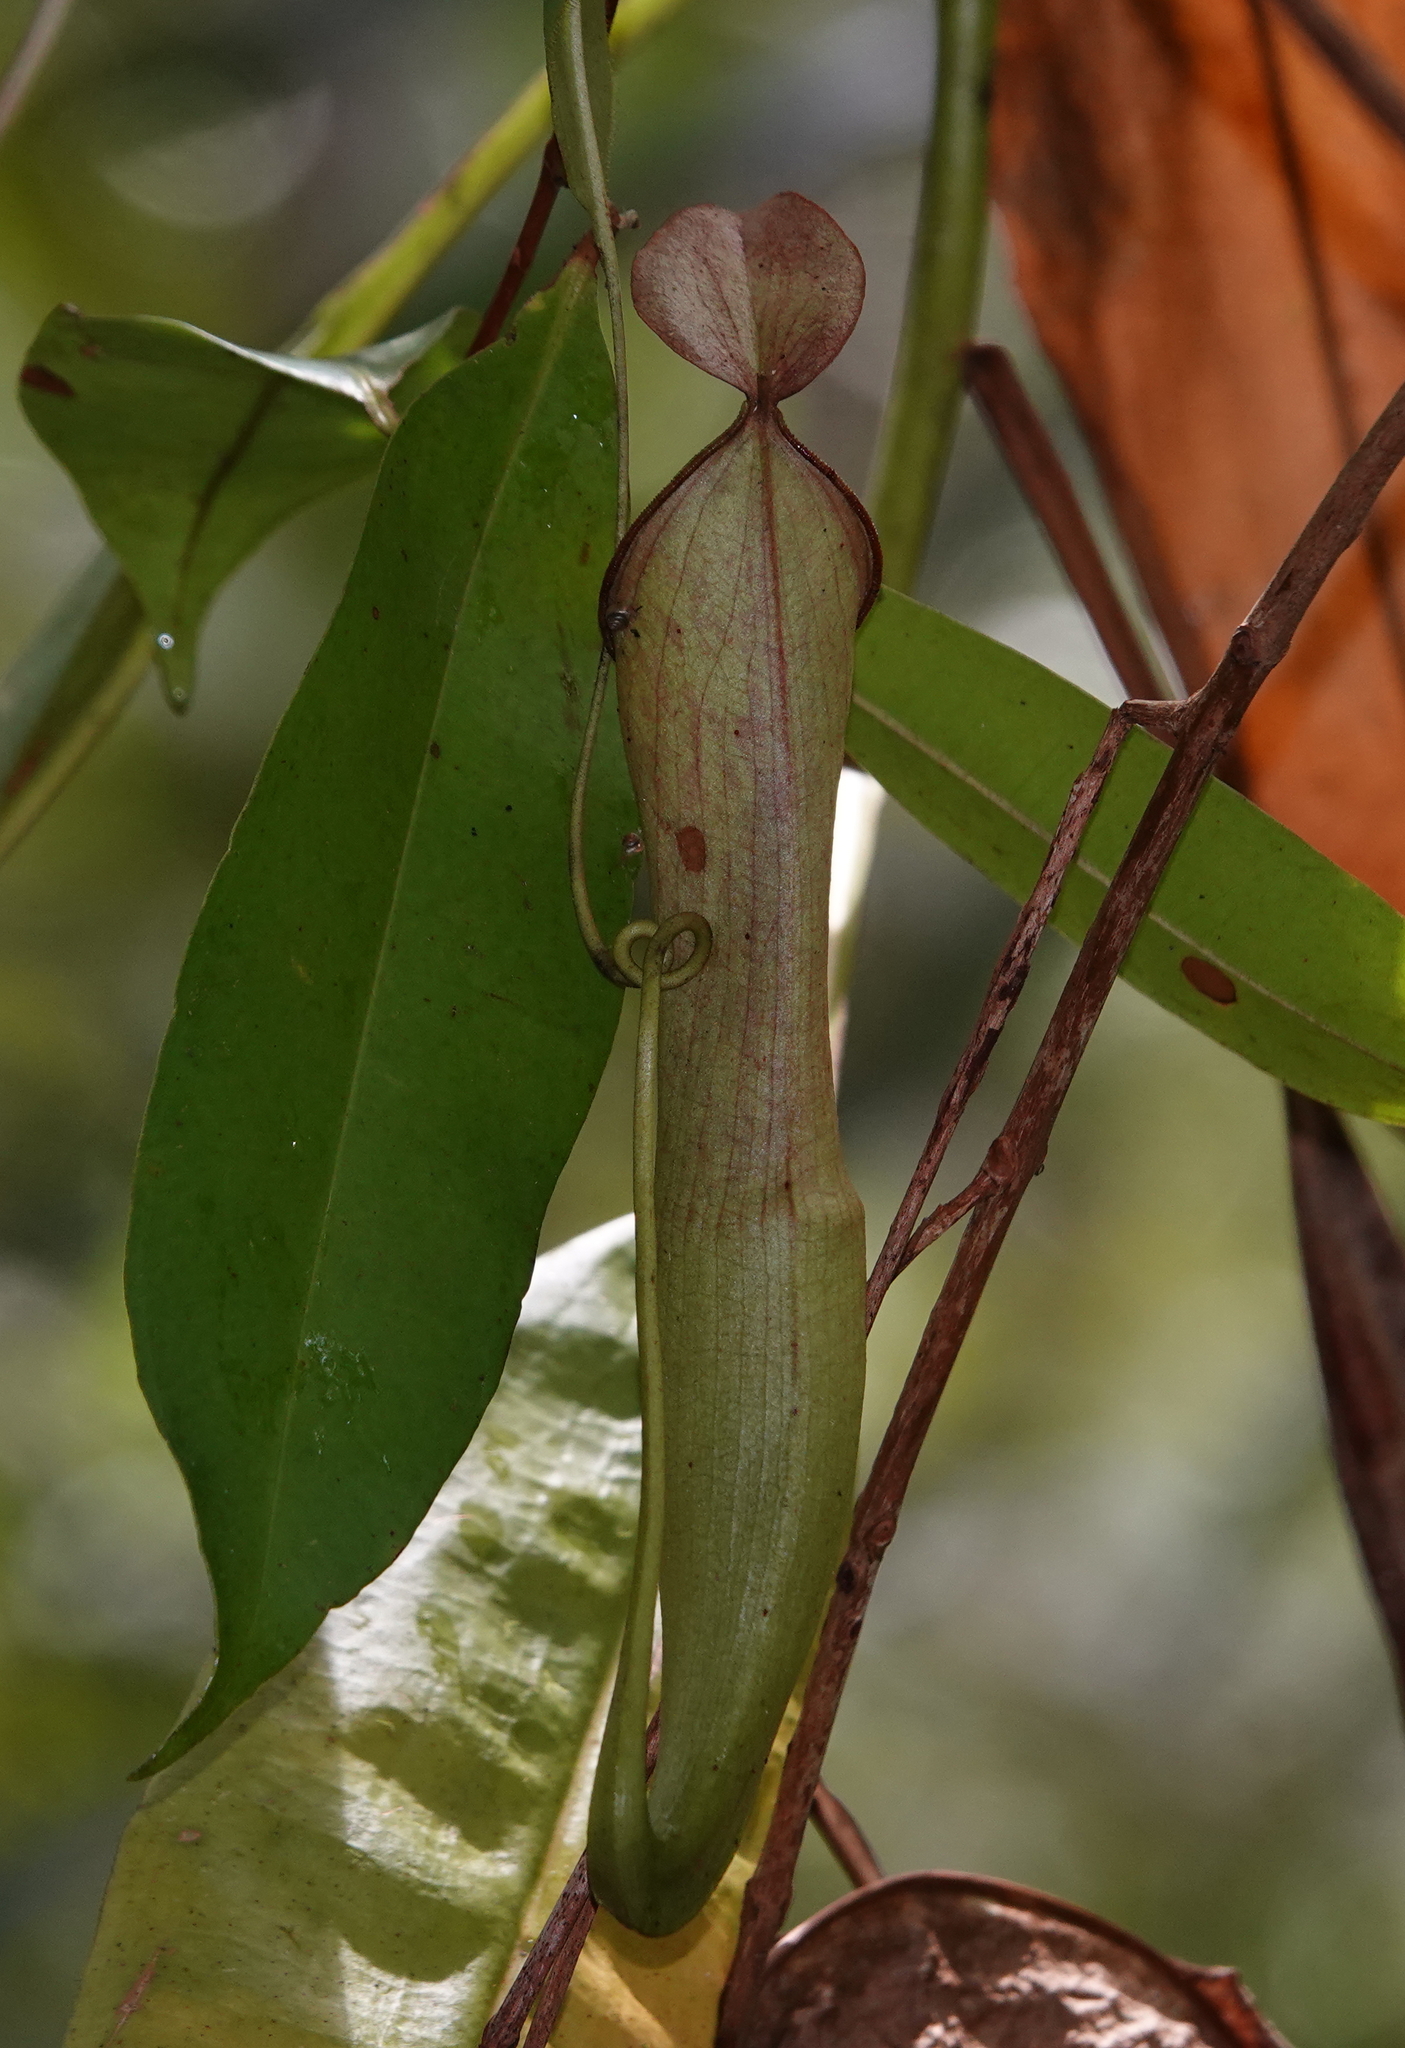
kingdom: Plantae
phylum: Tracheophyta
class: Magnoliopsida
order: Caryophyllales
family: Nepenthaceae
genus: Nepenthes
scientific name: Nepenthes mirabilis
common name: Tropical pitcherplant
